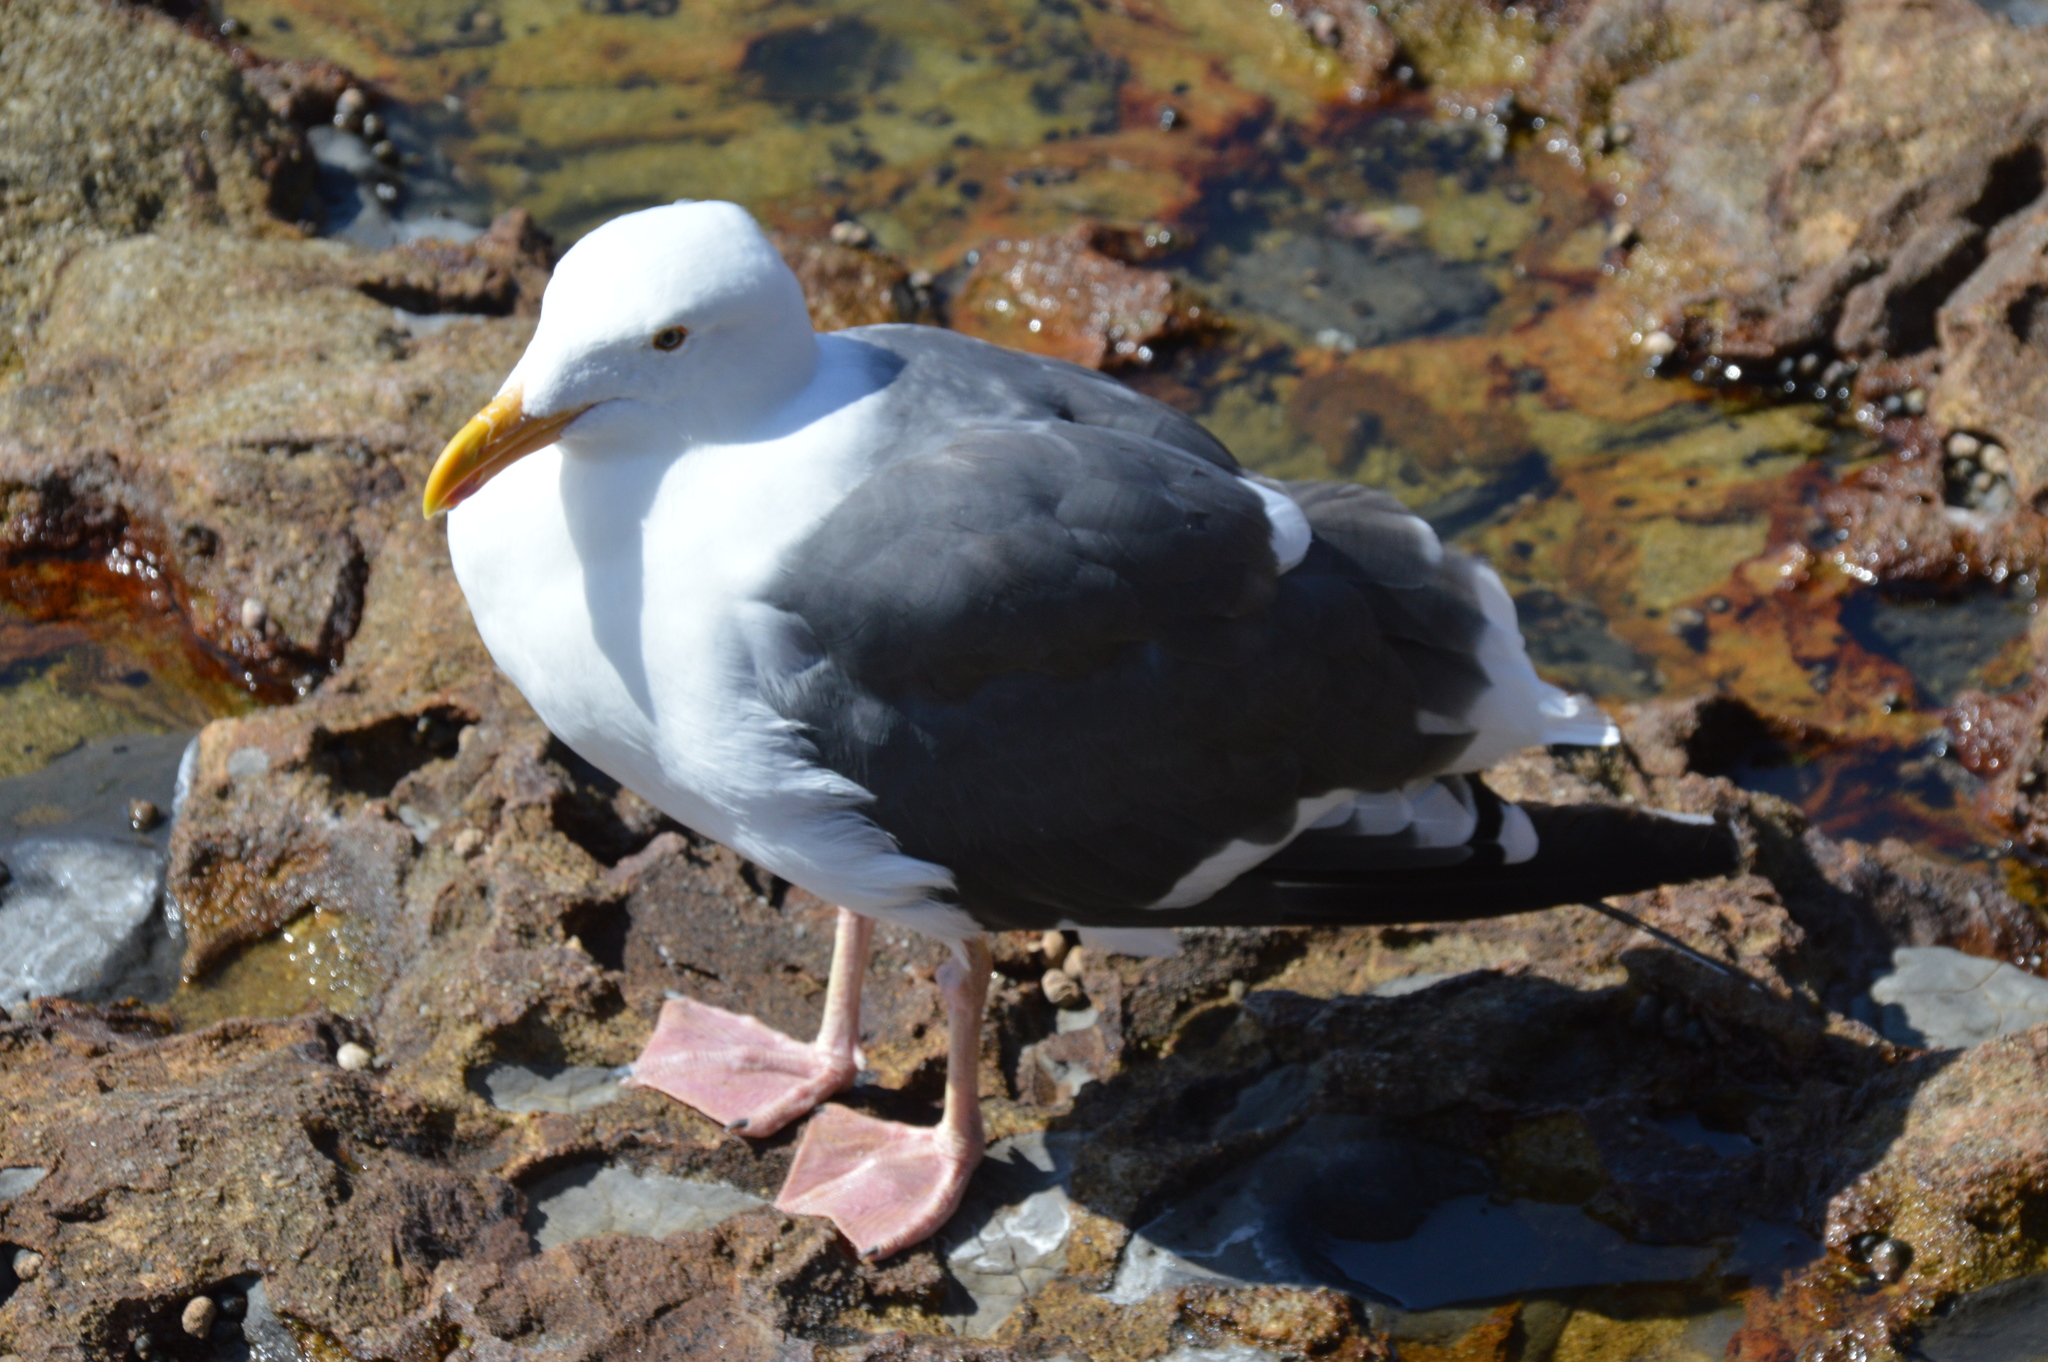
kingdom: Animalia
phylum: Chordata
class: Aves
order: Charadriiformes
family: Laridae
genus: Larus
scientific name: Larus occidentalis
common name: Western gull
